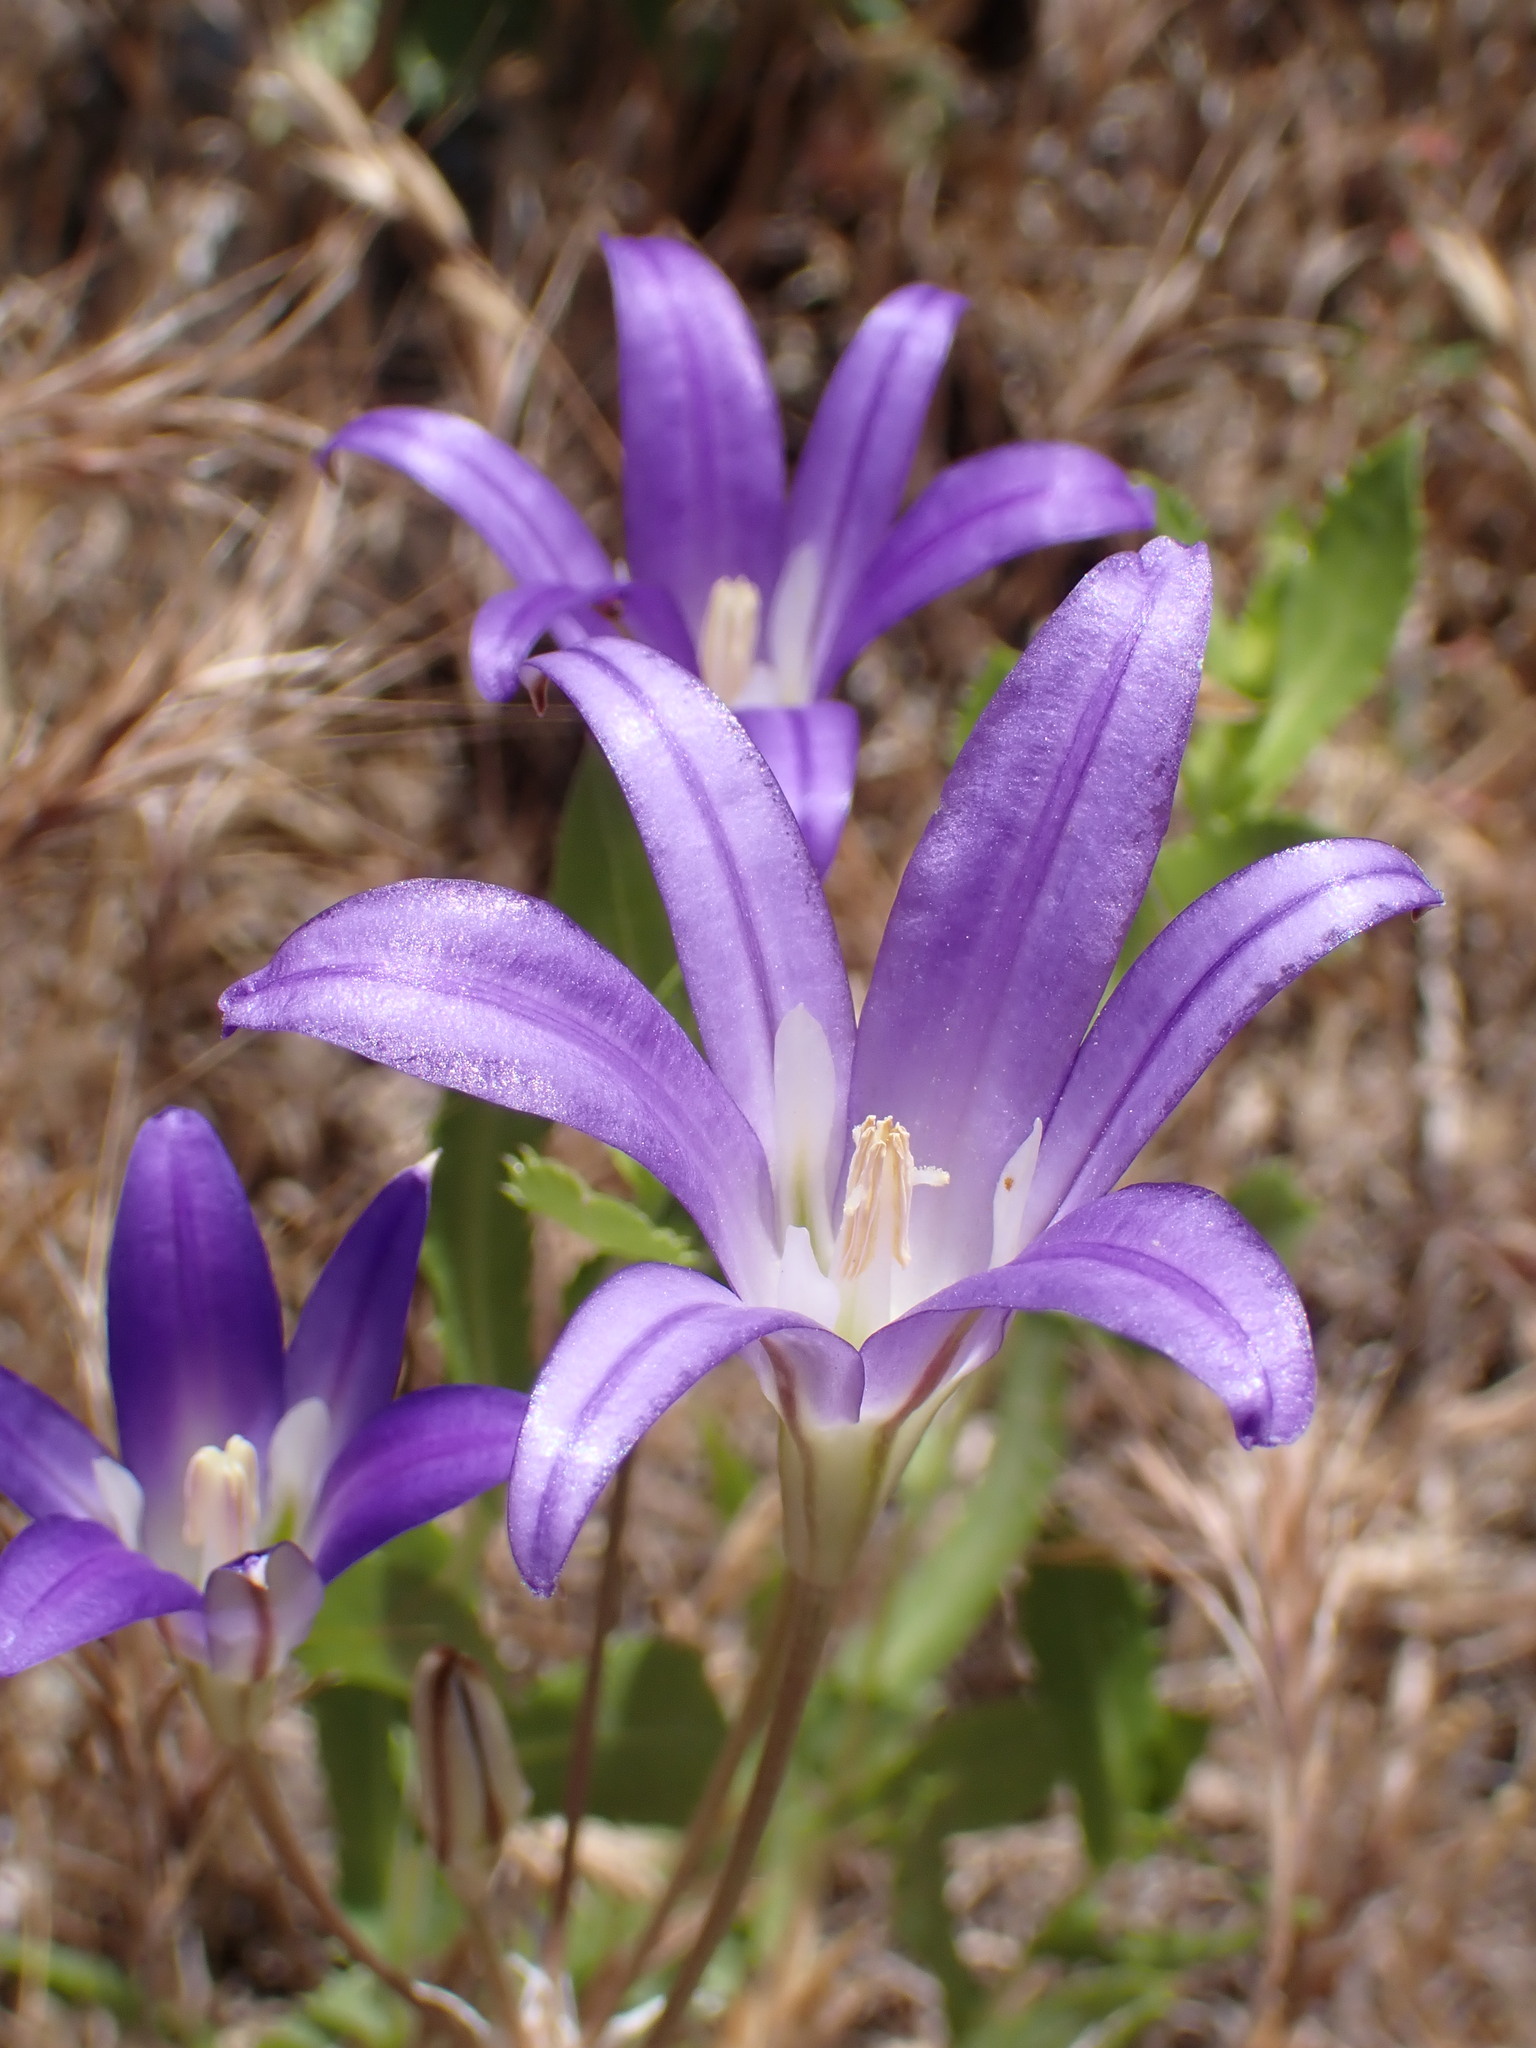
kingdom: Plantae
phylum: Tracheophyta
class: Liliopsida
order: Asparagales
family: Asparagaceae
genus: Brodiaea
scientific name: Brodiaea elegans
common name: Elegant cluster-lily
